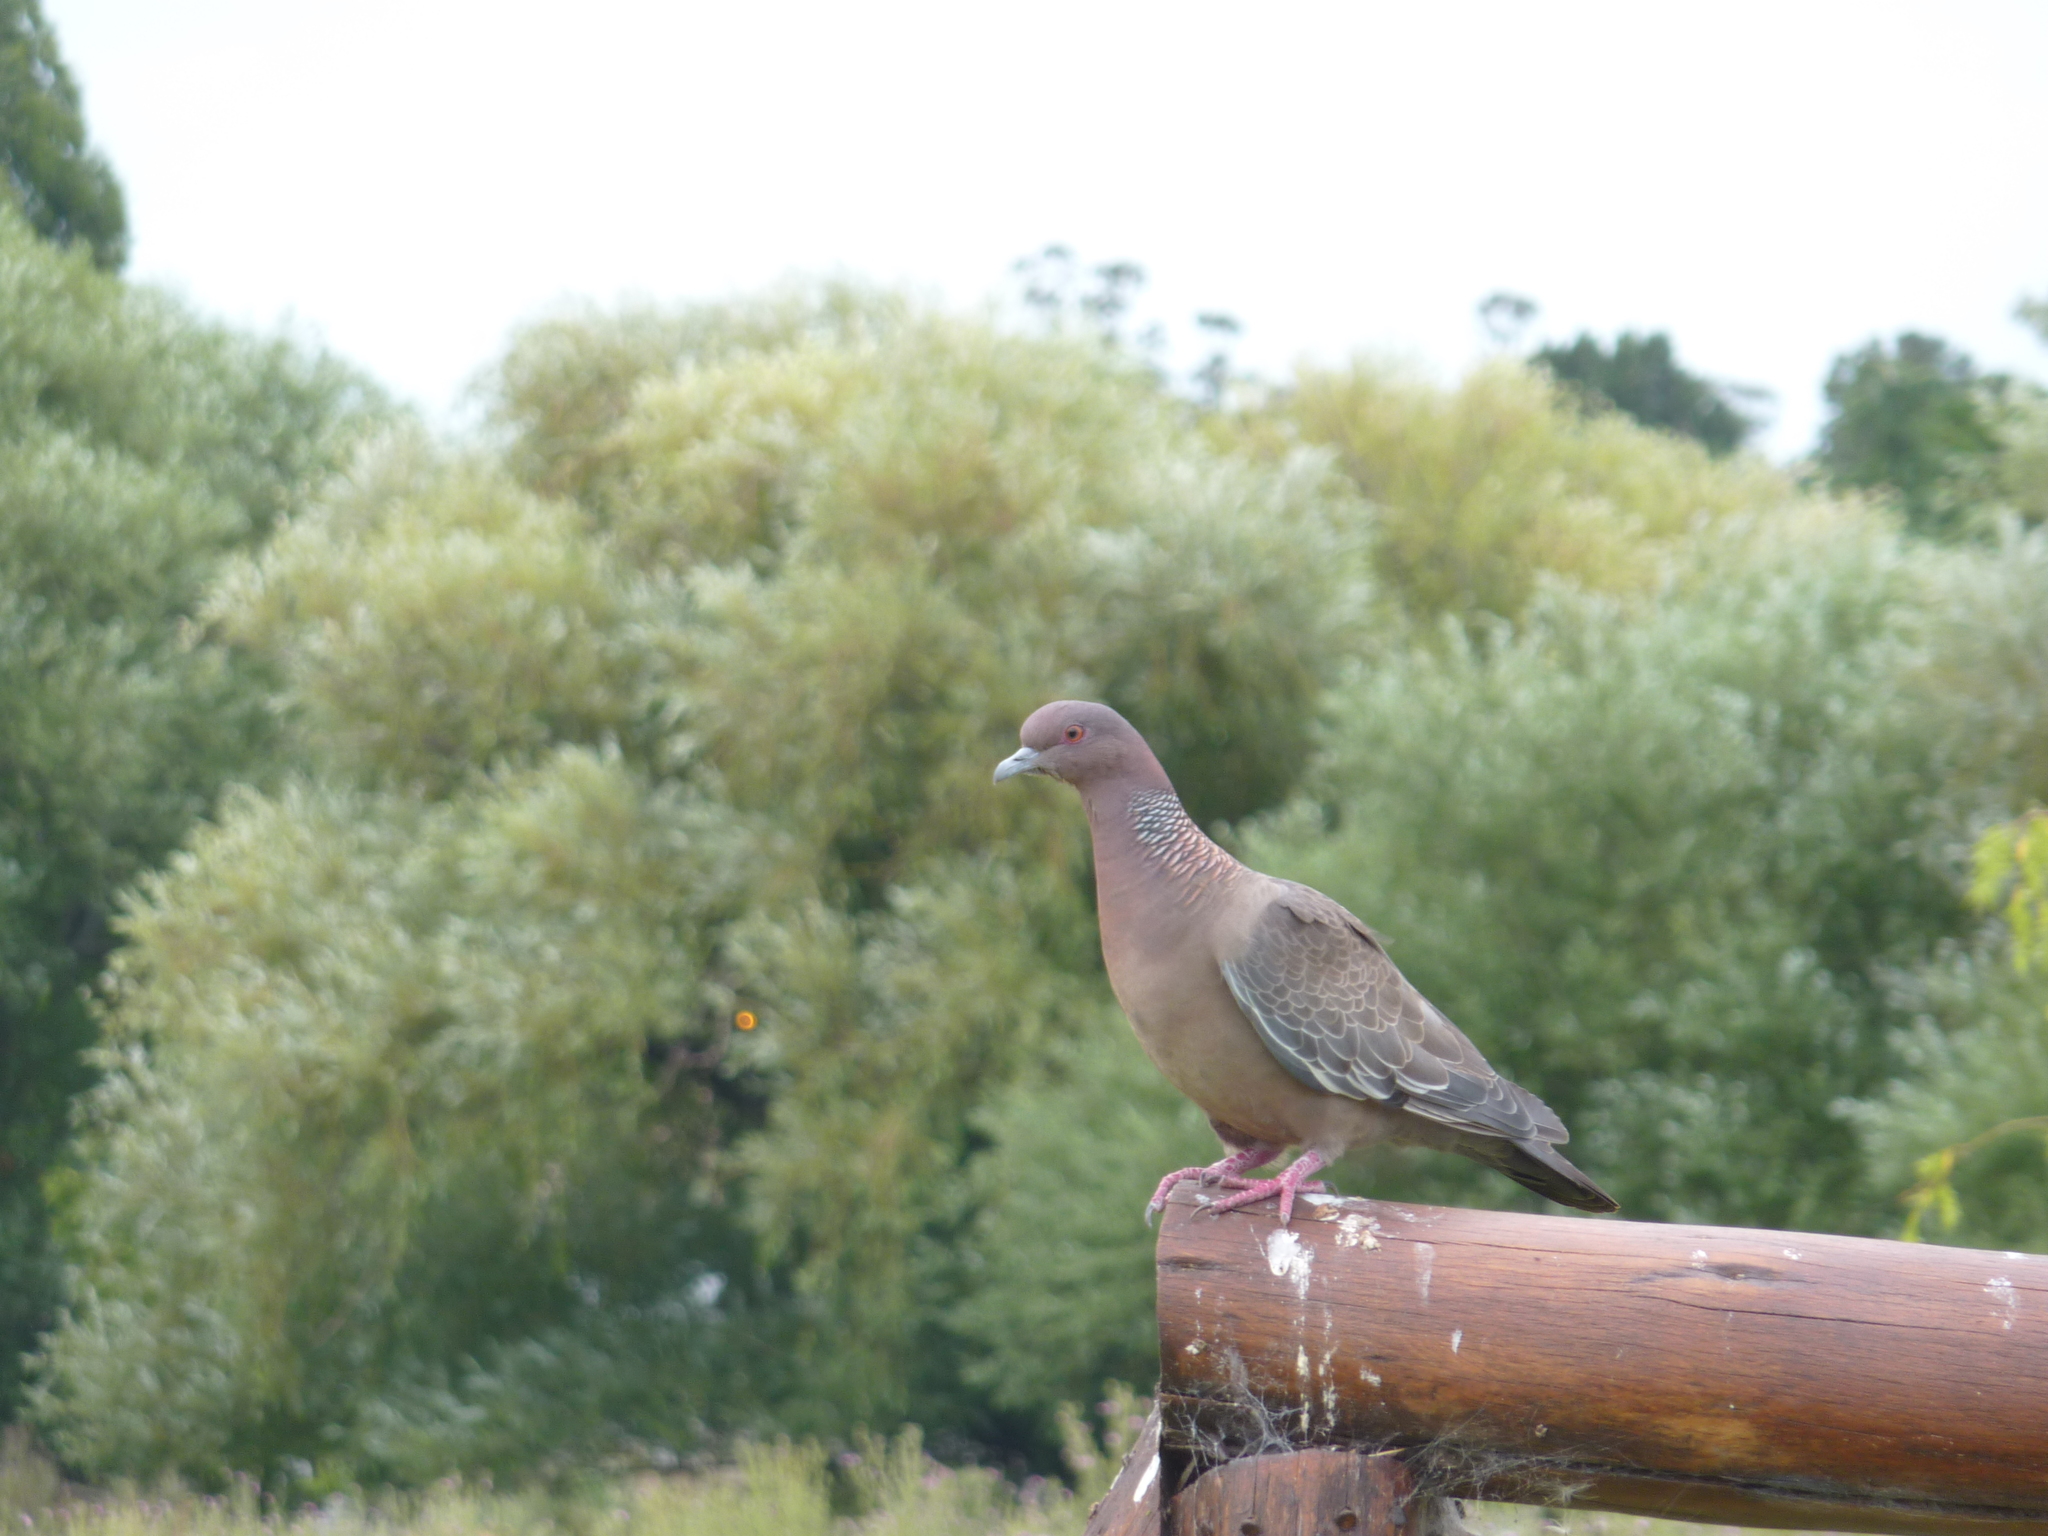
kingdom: Animalia
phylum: Chordata
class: Aves
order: Columbiformes
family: Columbidae
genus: Patagioenas
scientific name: Patagioenas picazuro
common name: Picazuro pigeon
